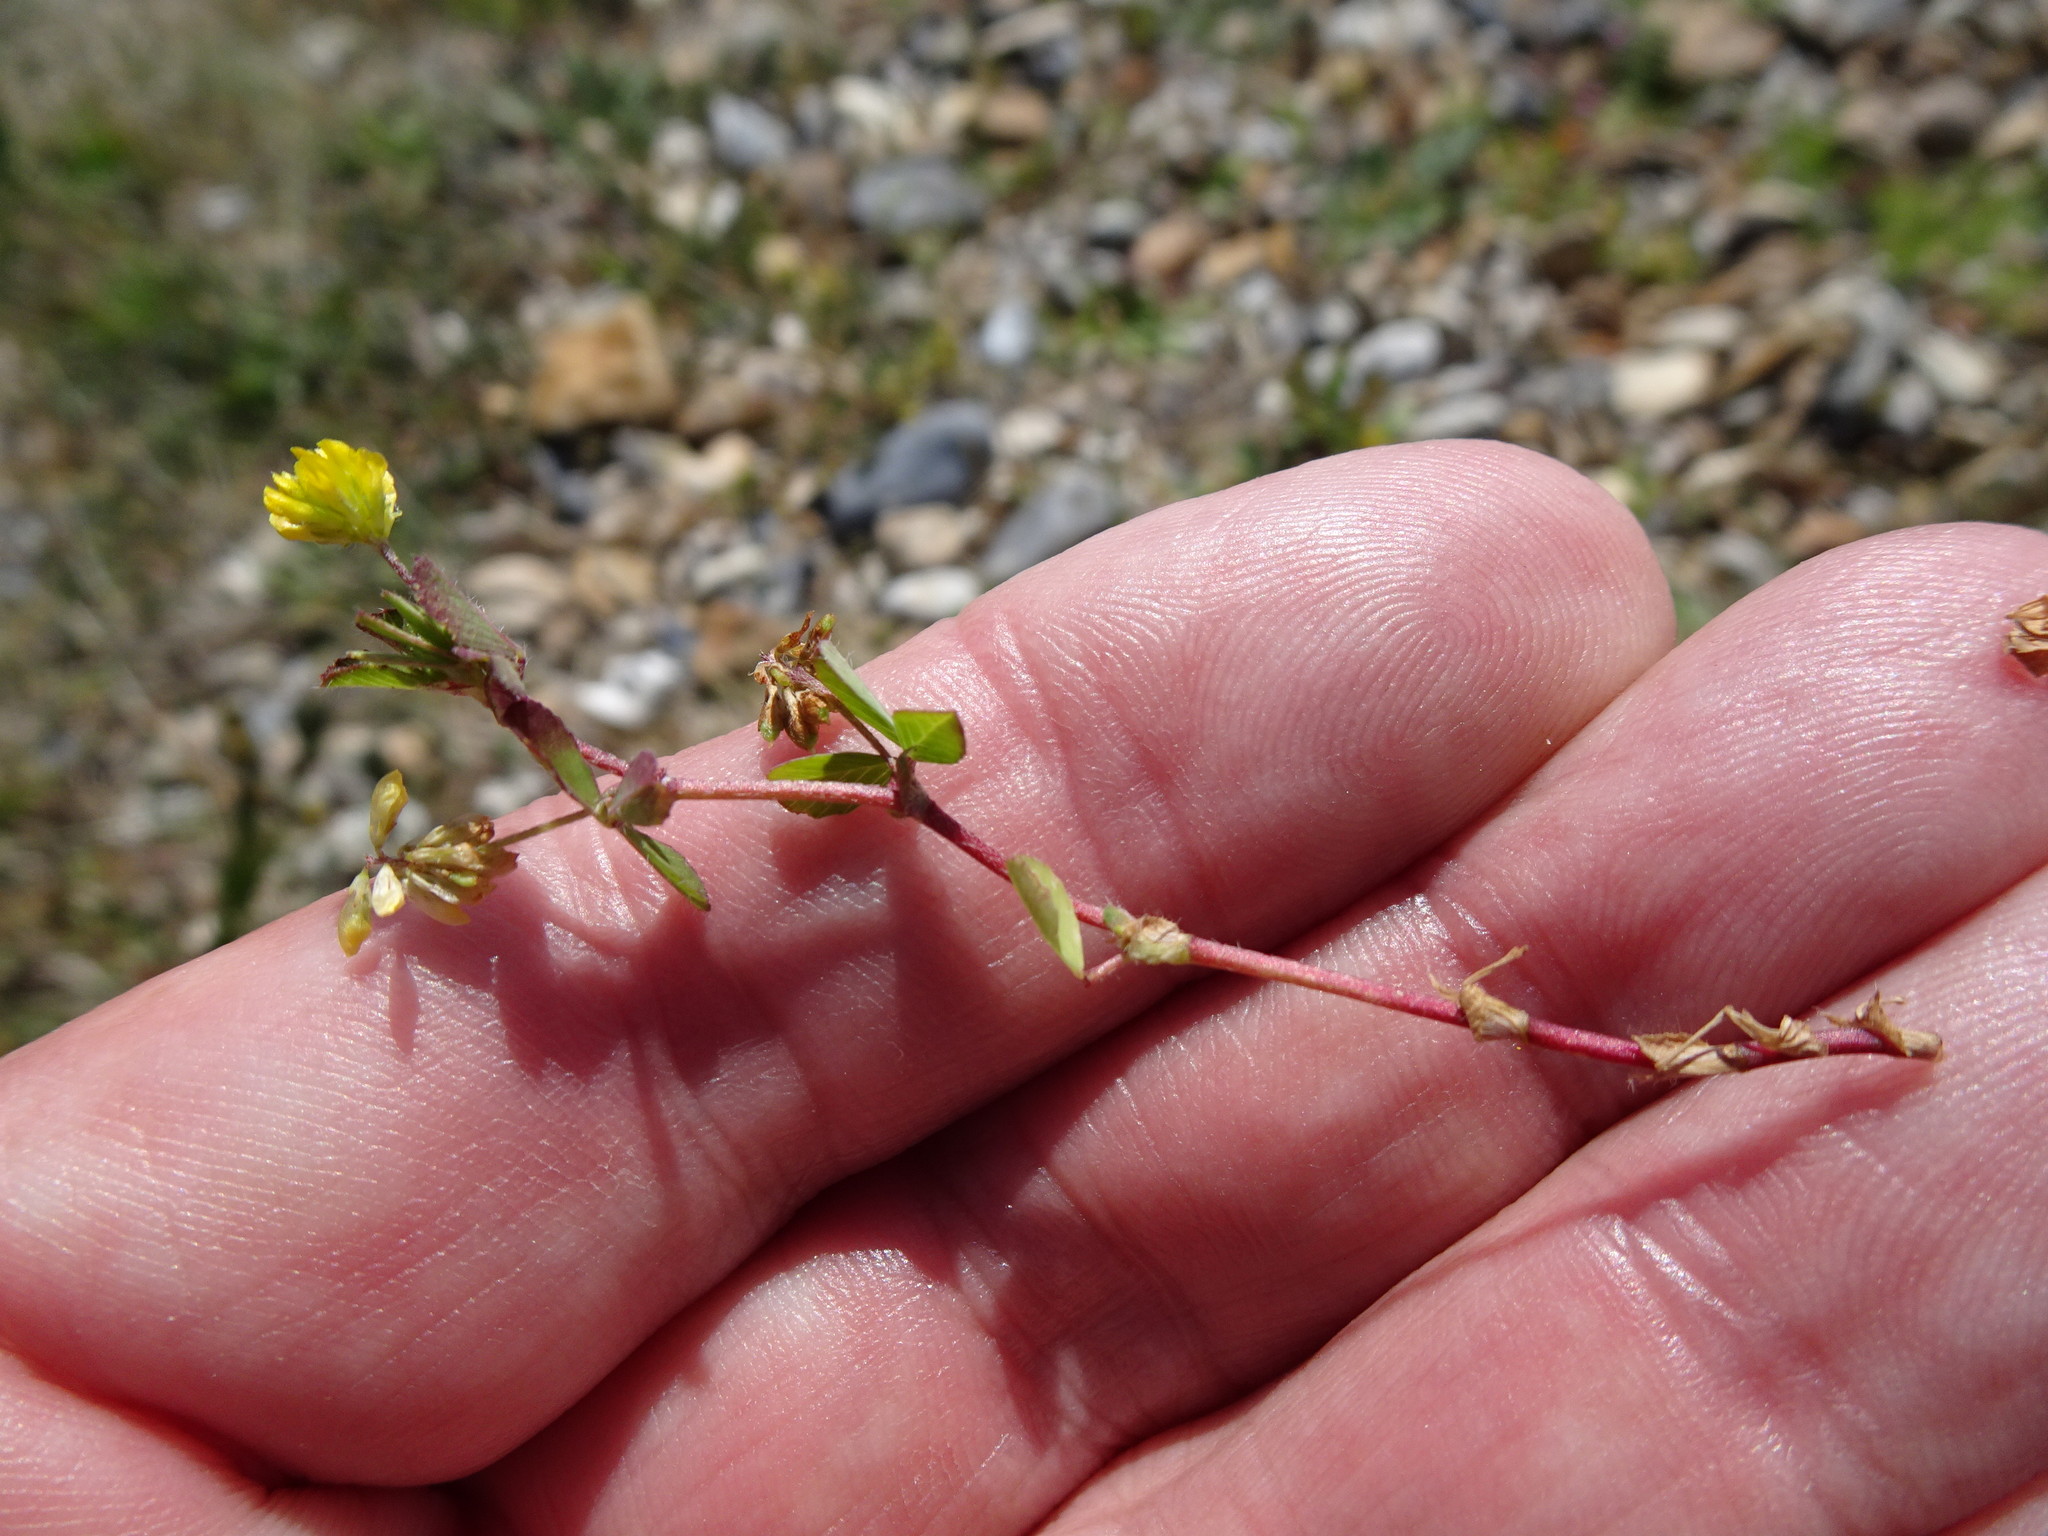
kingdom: Plantae
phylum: Tracheophyta
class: Magnoliopsida
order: Fabales
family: Fabaceae
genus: Trifolium
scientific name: Trifolium dubium
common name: Suckling clover
